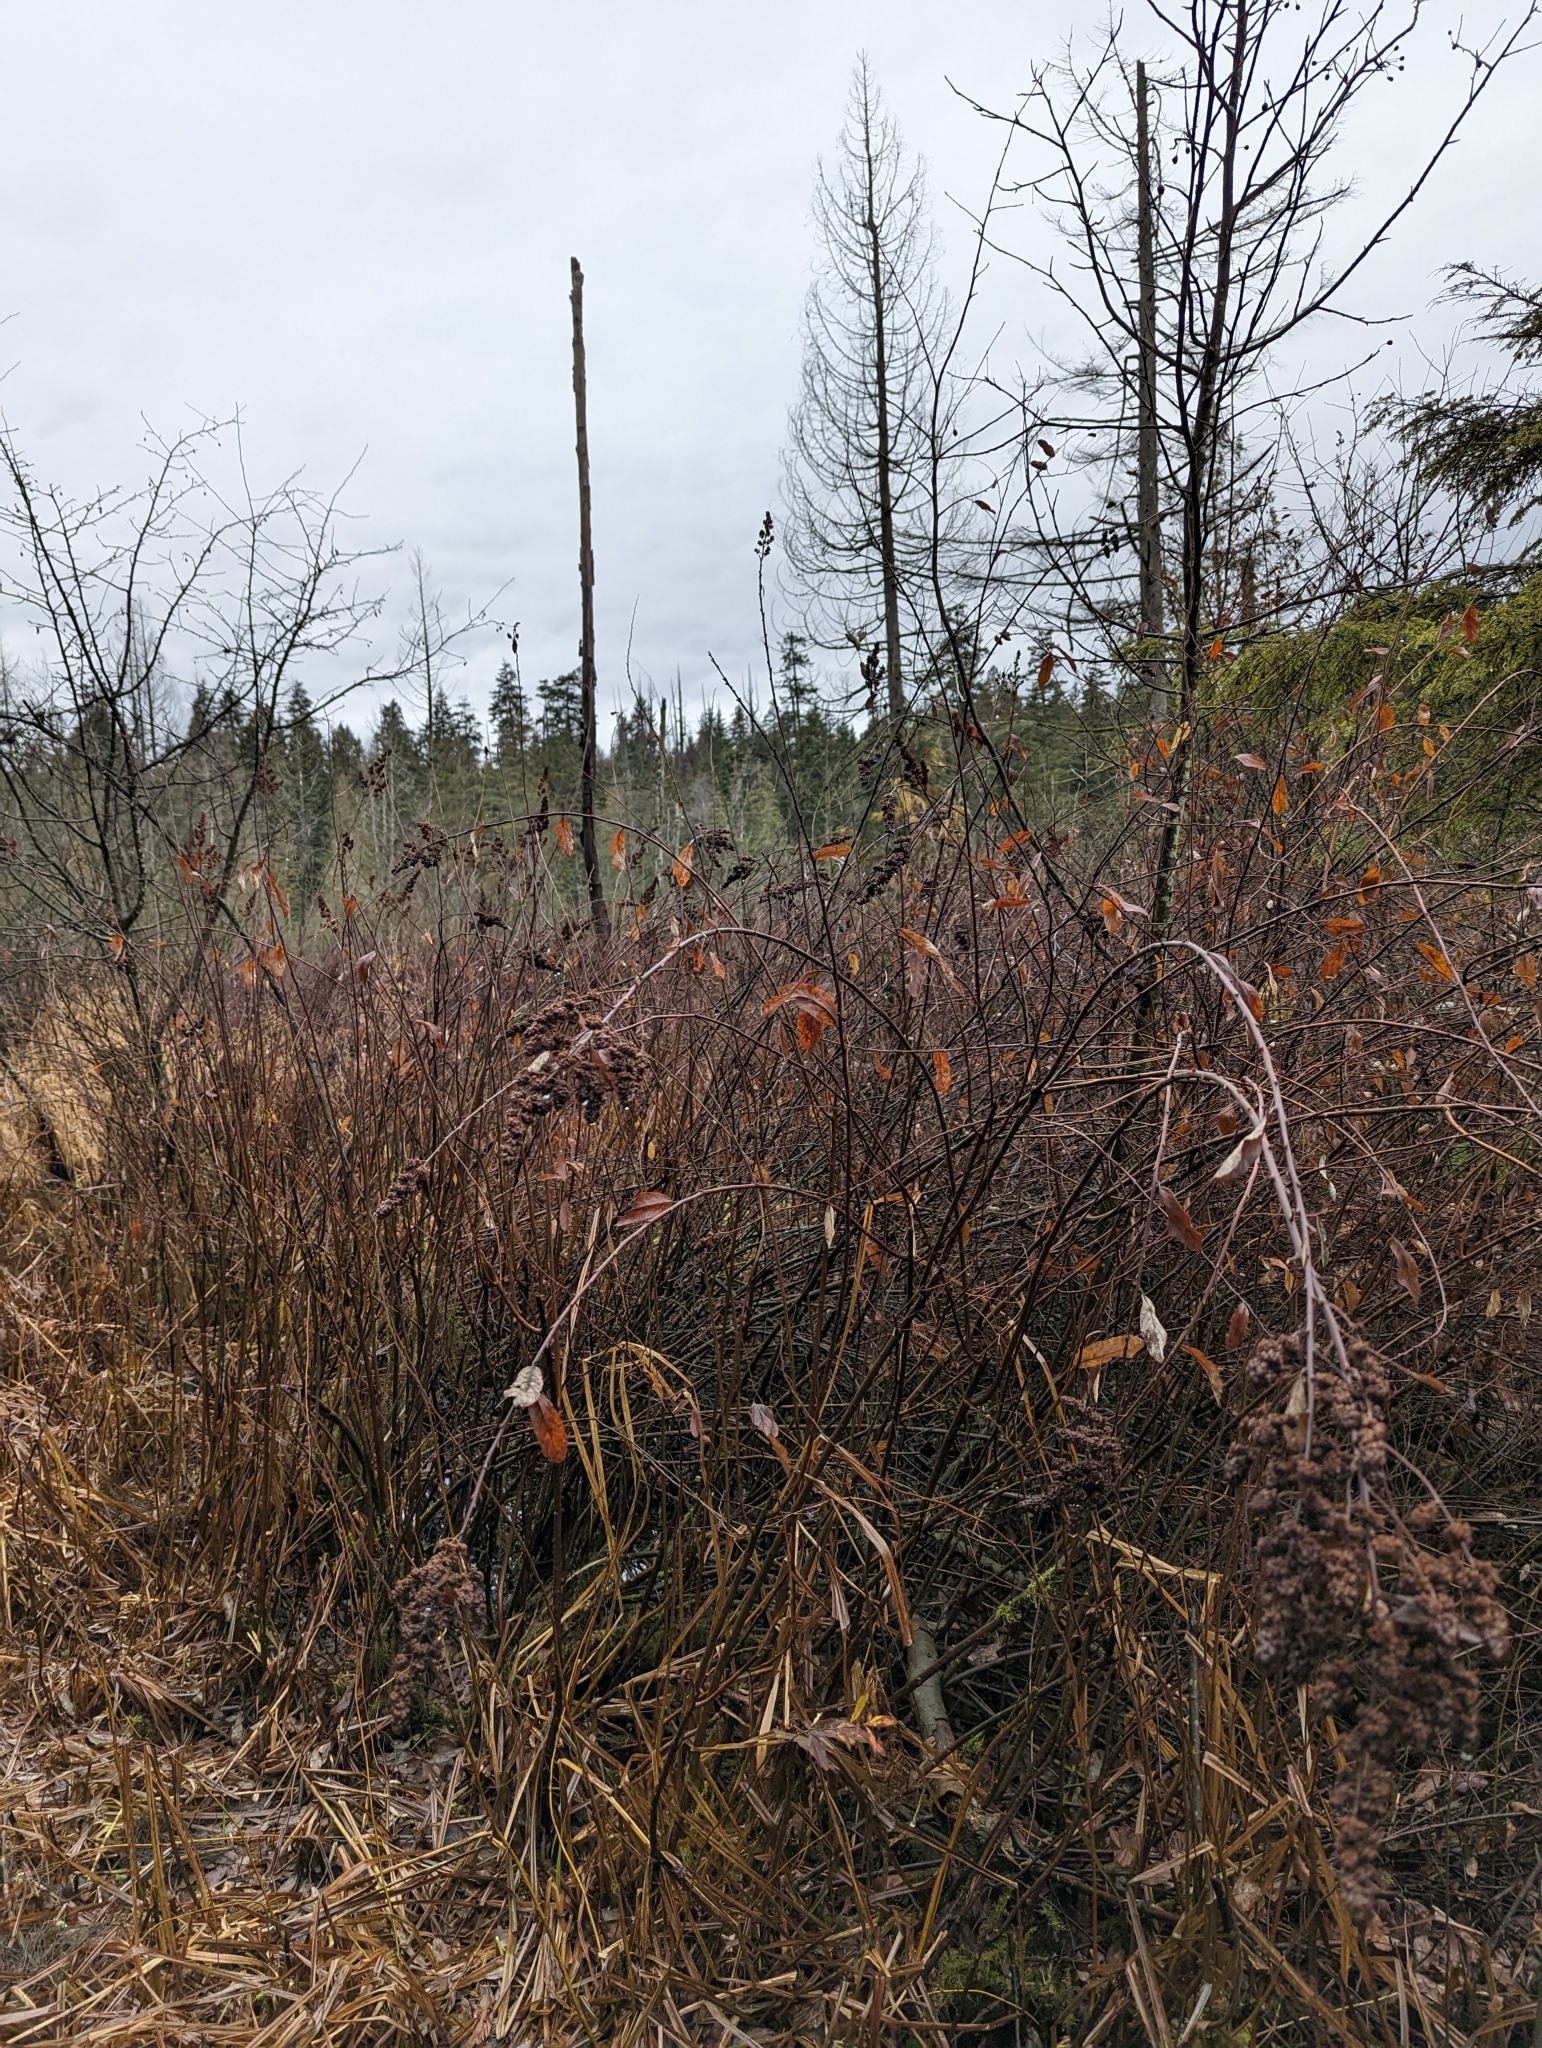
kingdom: Plantae
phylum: Tracheophyta
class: Magnoliopsida
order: Rosales
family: Rosaceae
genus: Spiraea
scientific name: Spiraea douglasii
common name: Steeplebush
